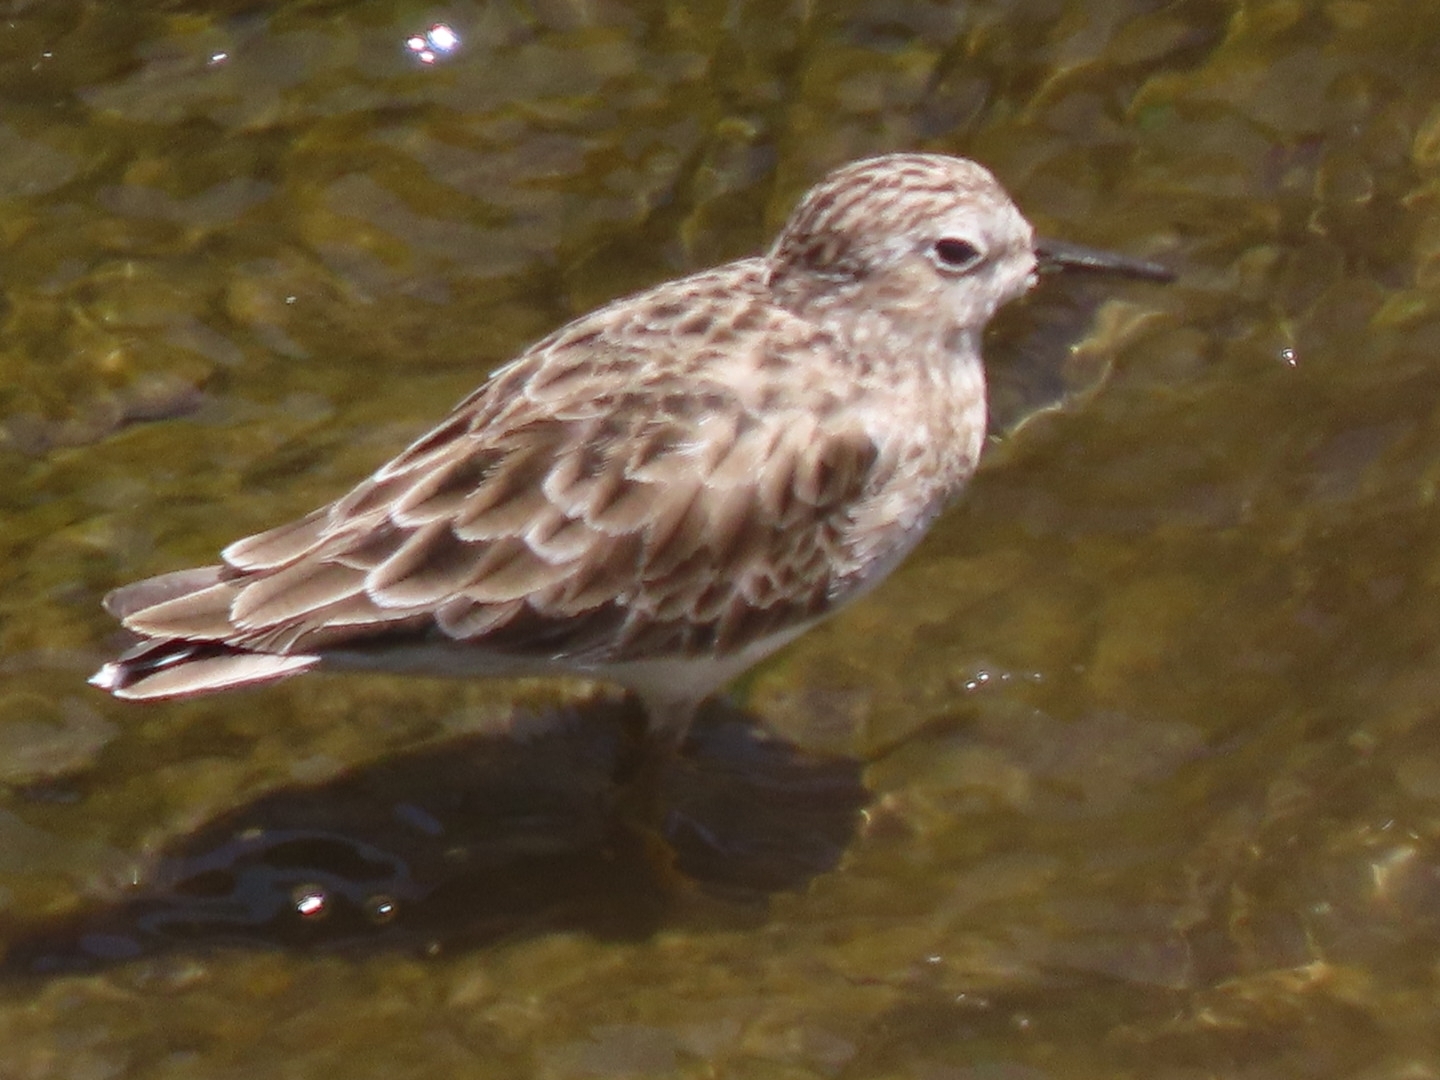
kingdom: Animalia
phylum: Chordata
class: Aves
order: Charadriiformes
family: Scolopacidae
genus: Calidris
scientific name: Calidris minutilla
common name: Least sandpiper
